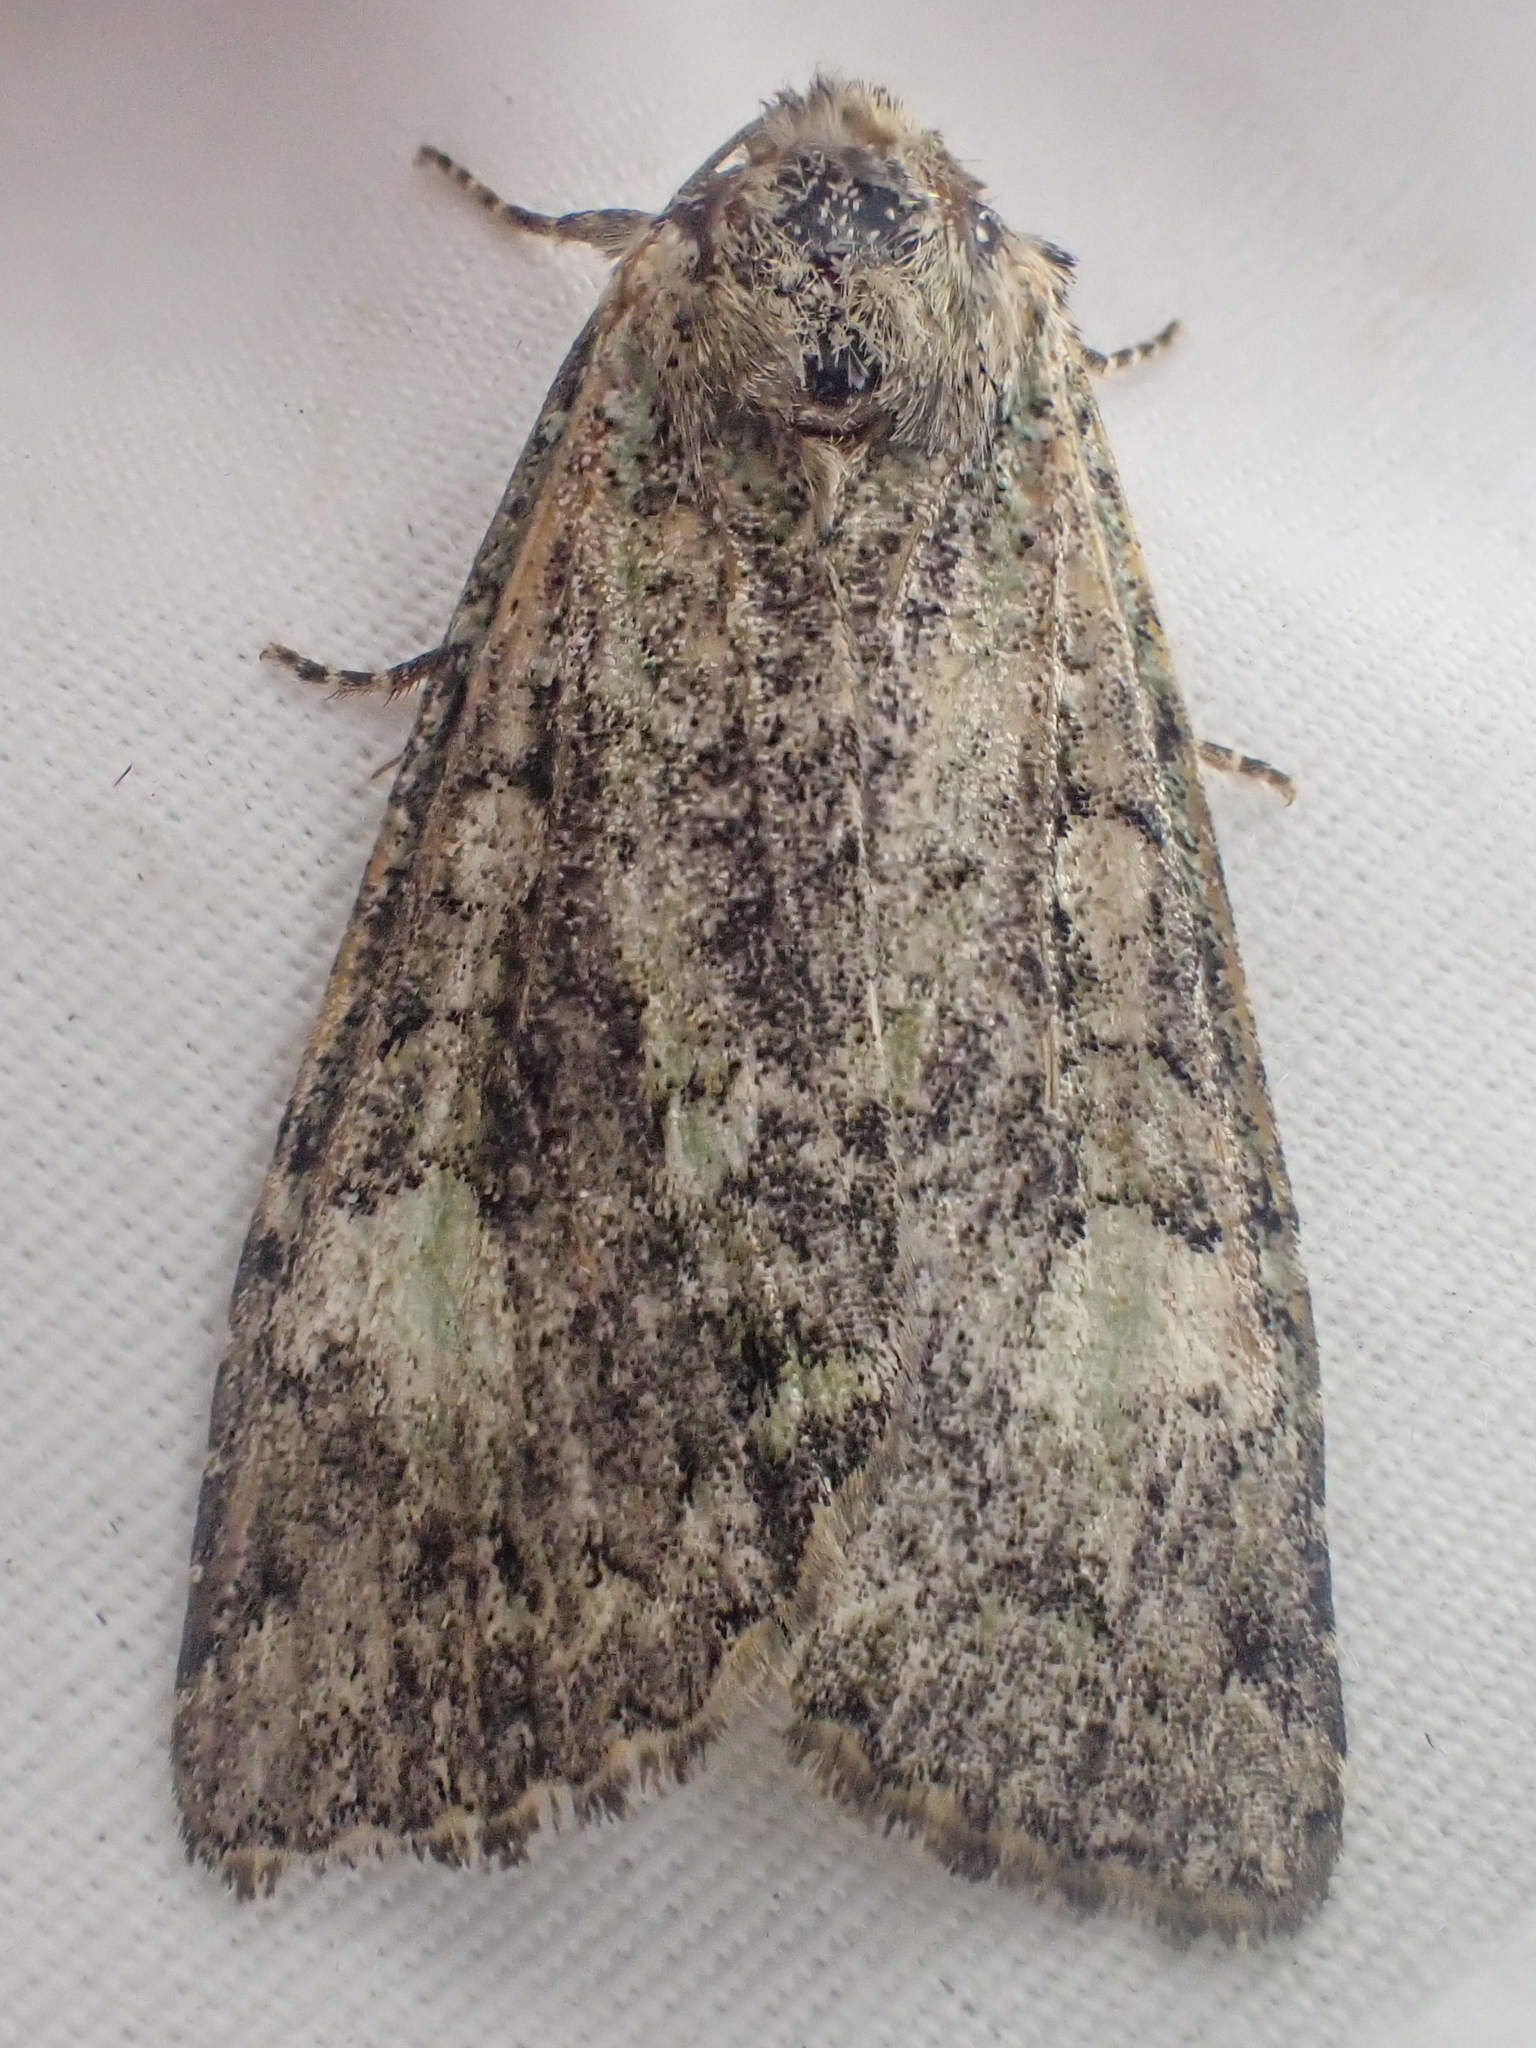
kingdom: Animalia
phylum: Arthropoda
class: Insecta
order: Lepidoptera
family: Noctuidae
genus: Anaplectoides
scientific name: Anaplectoides prasina
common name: Green arches
